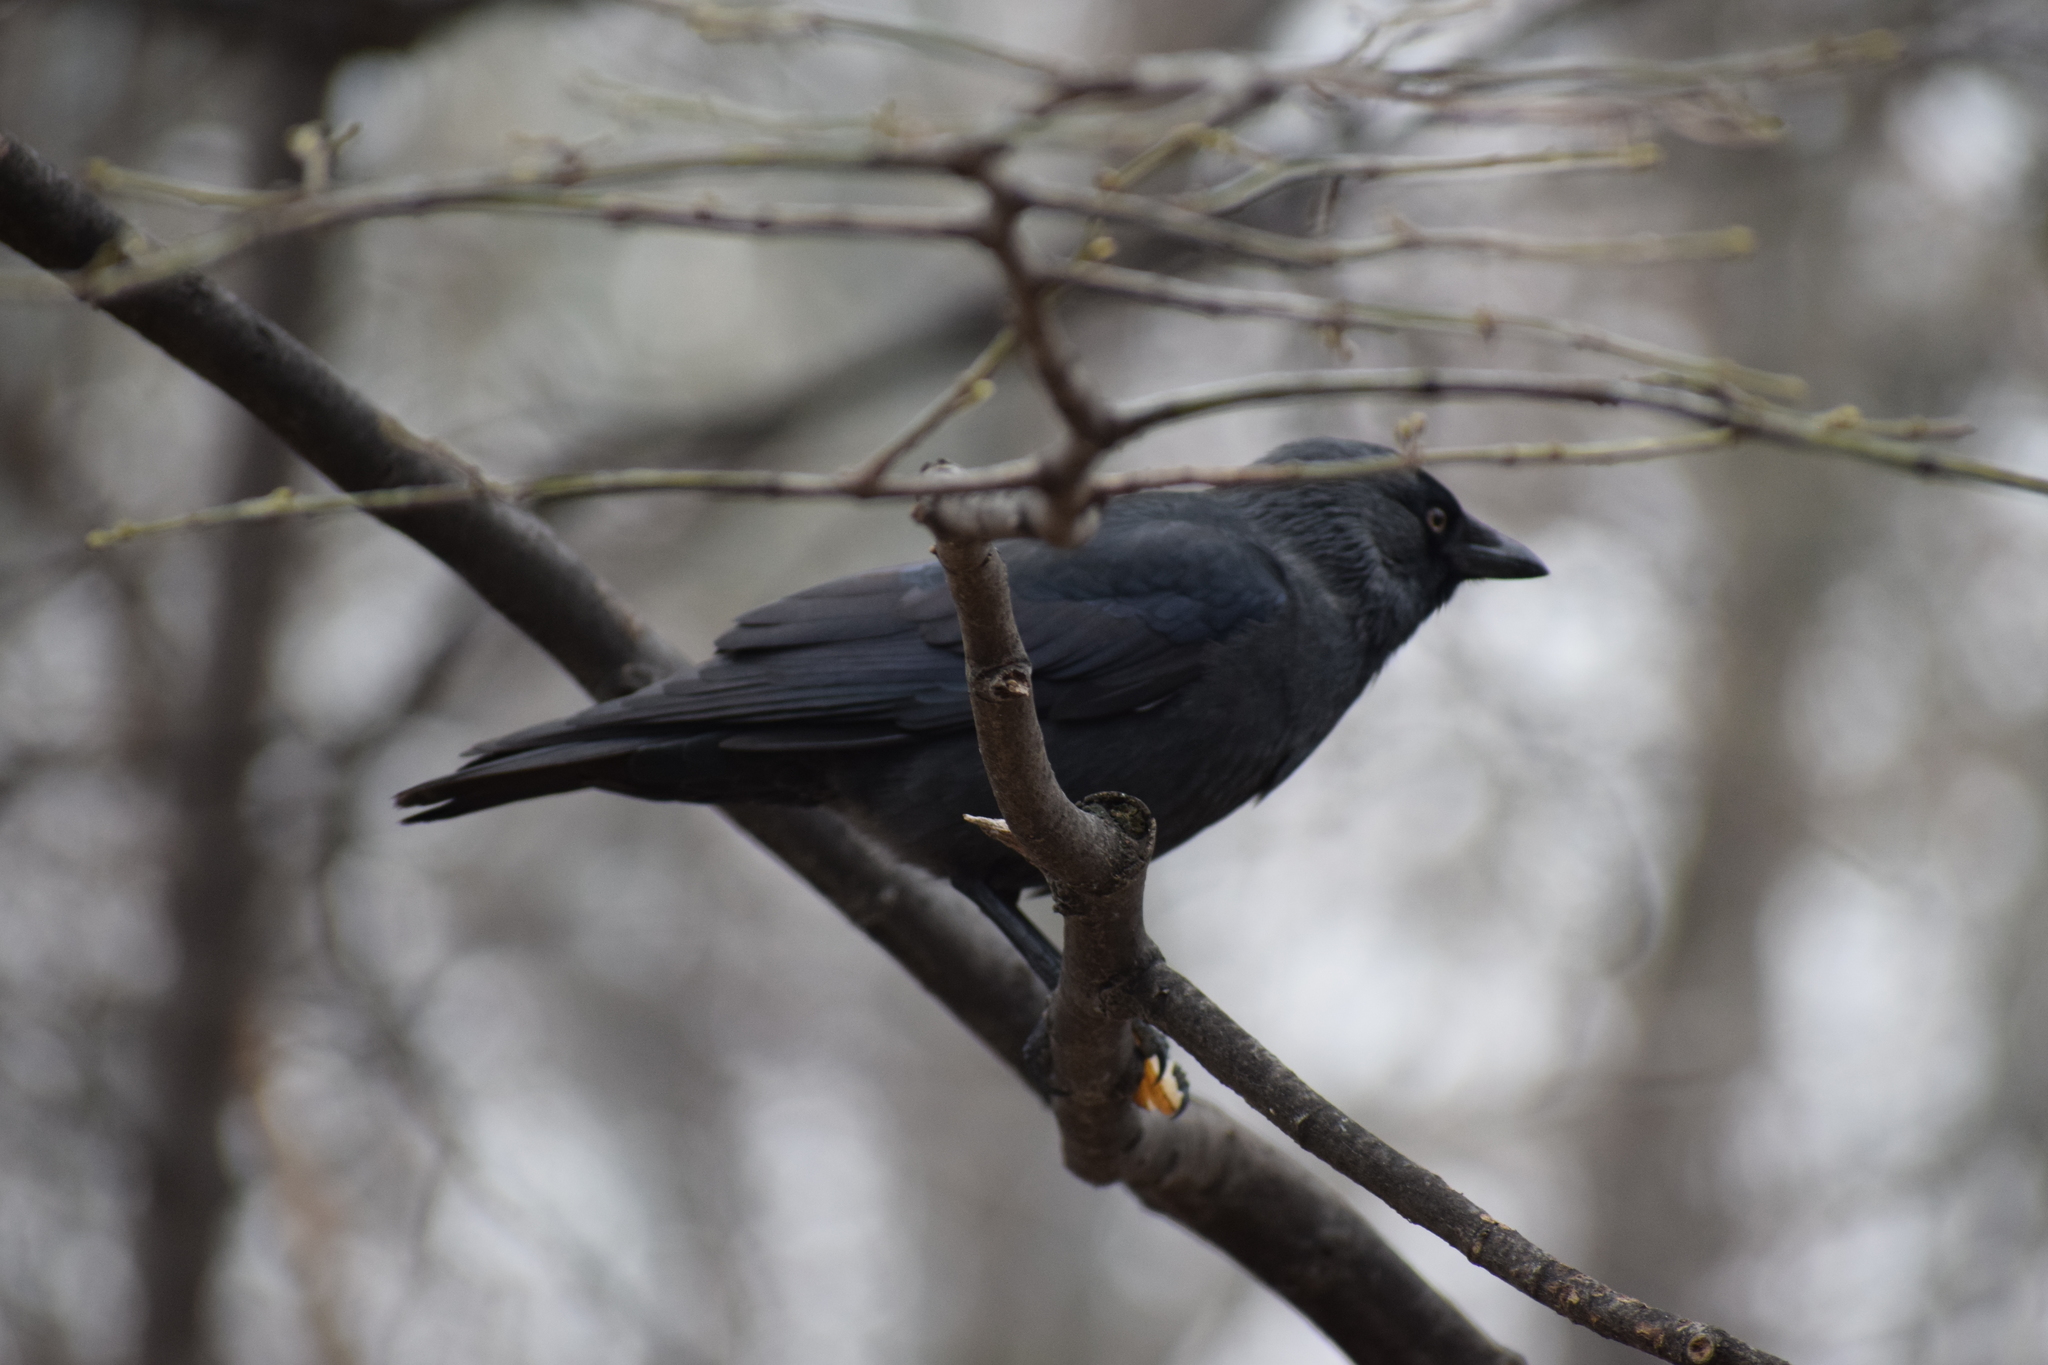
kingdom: Animalia
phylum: Chordata
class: Aves
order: Passeriformes
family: Corvidae
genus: Coloeus
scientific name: Coloeus monedula
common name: Western jackdaw
